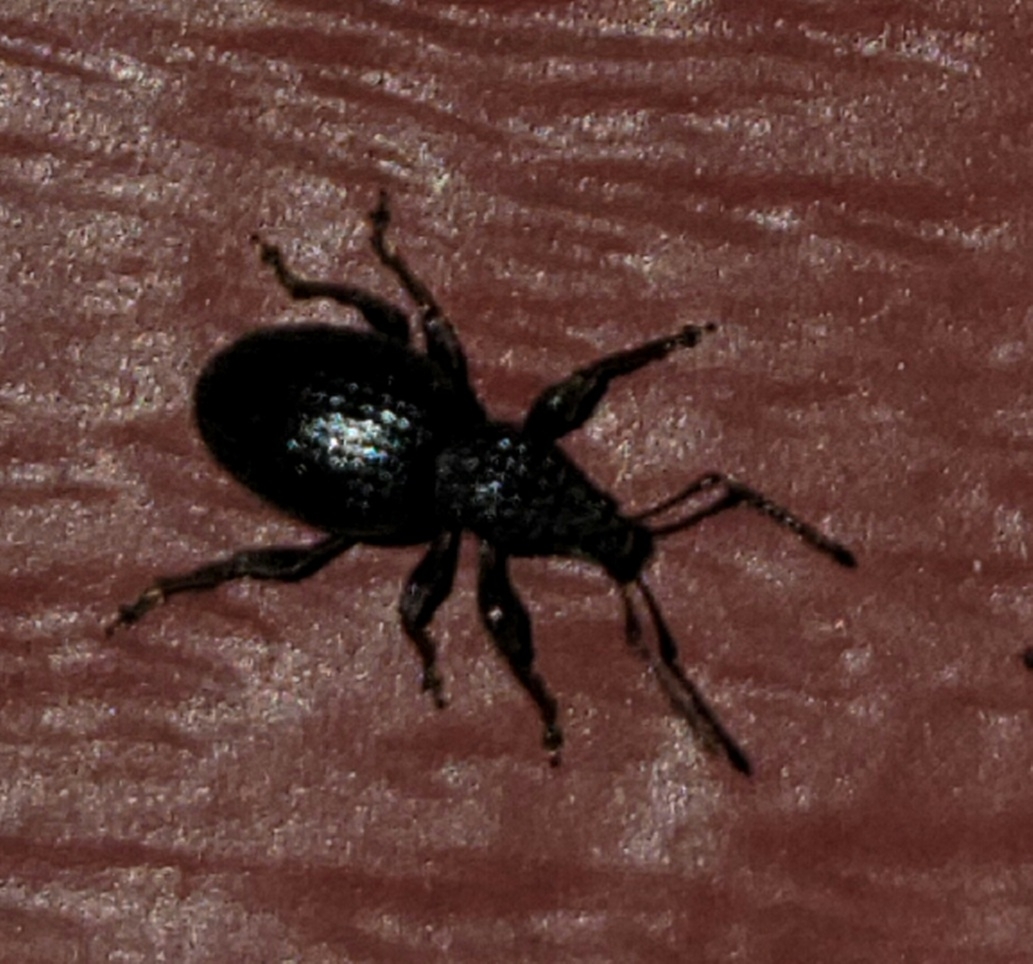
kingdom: Animalia
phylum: Arthropoda
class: Insecta
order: Coleoptera
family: Curculionidae
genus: Otiorhynchus
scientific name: Otiorhynchus ovatus
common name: Strawberry root weevil
